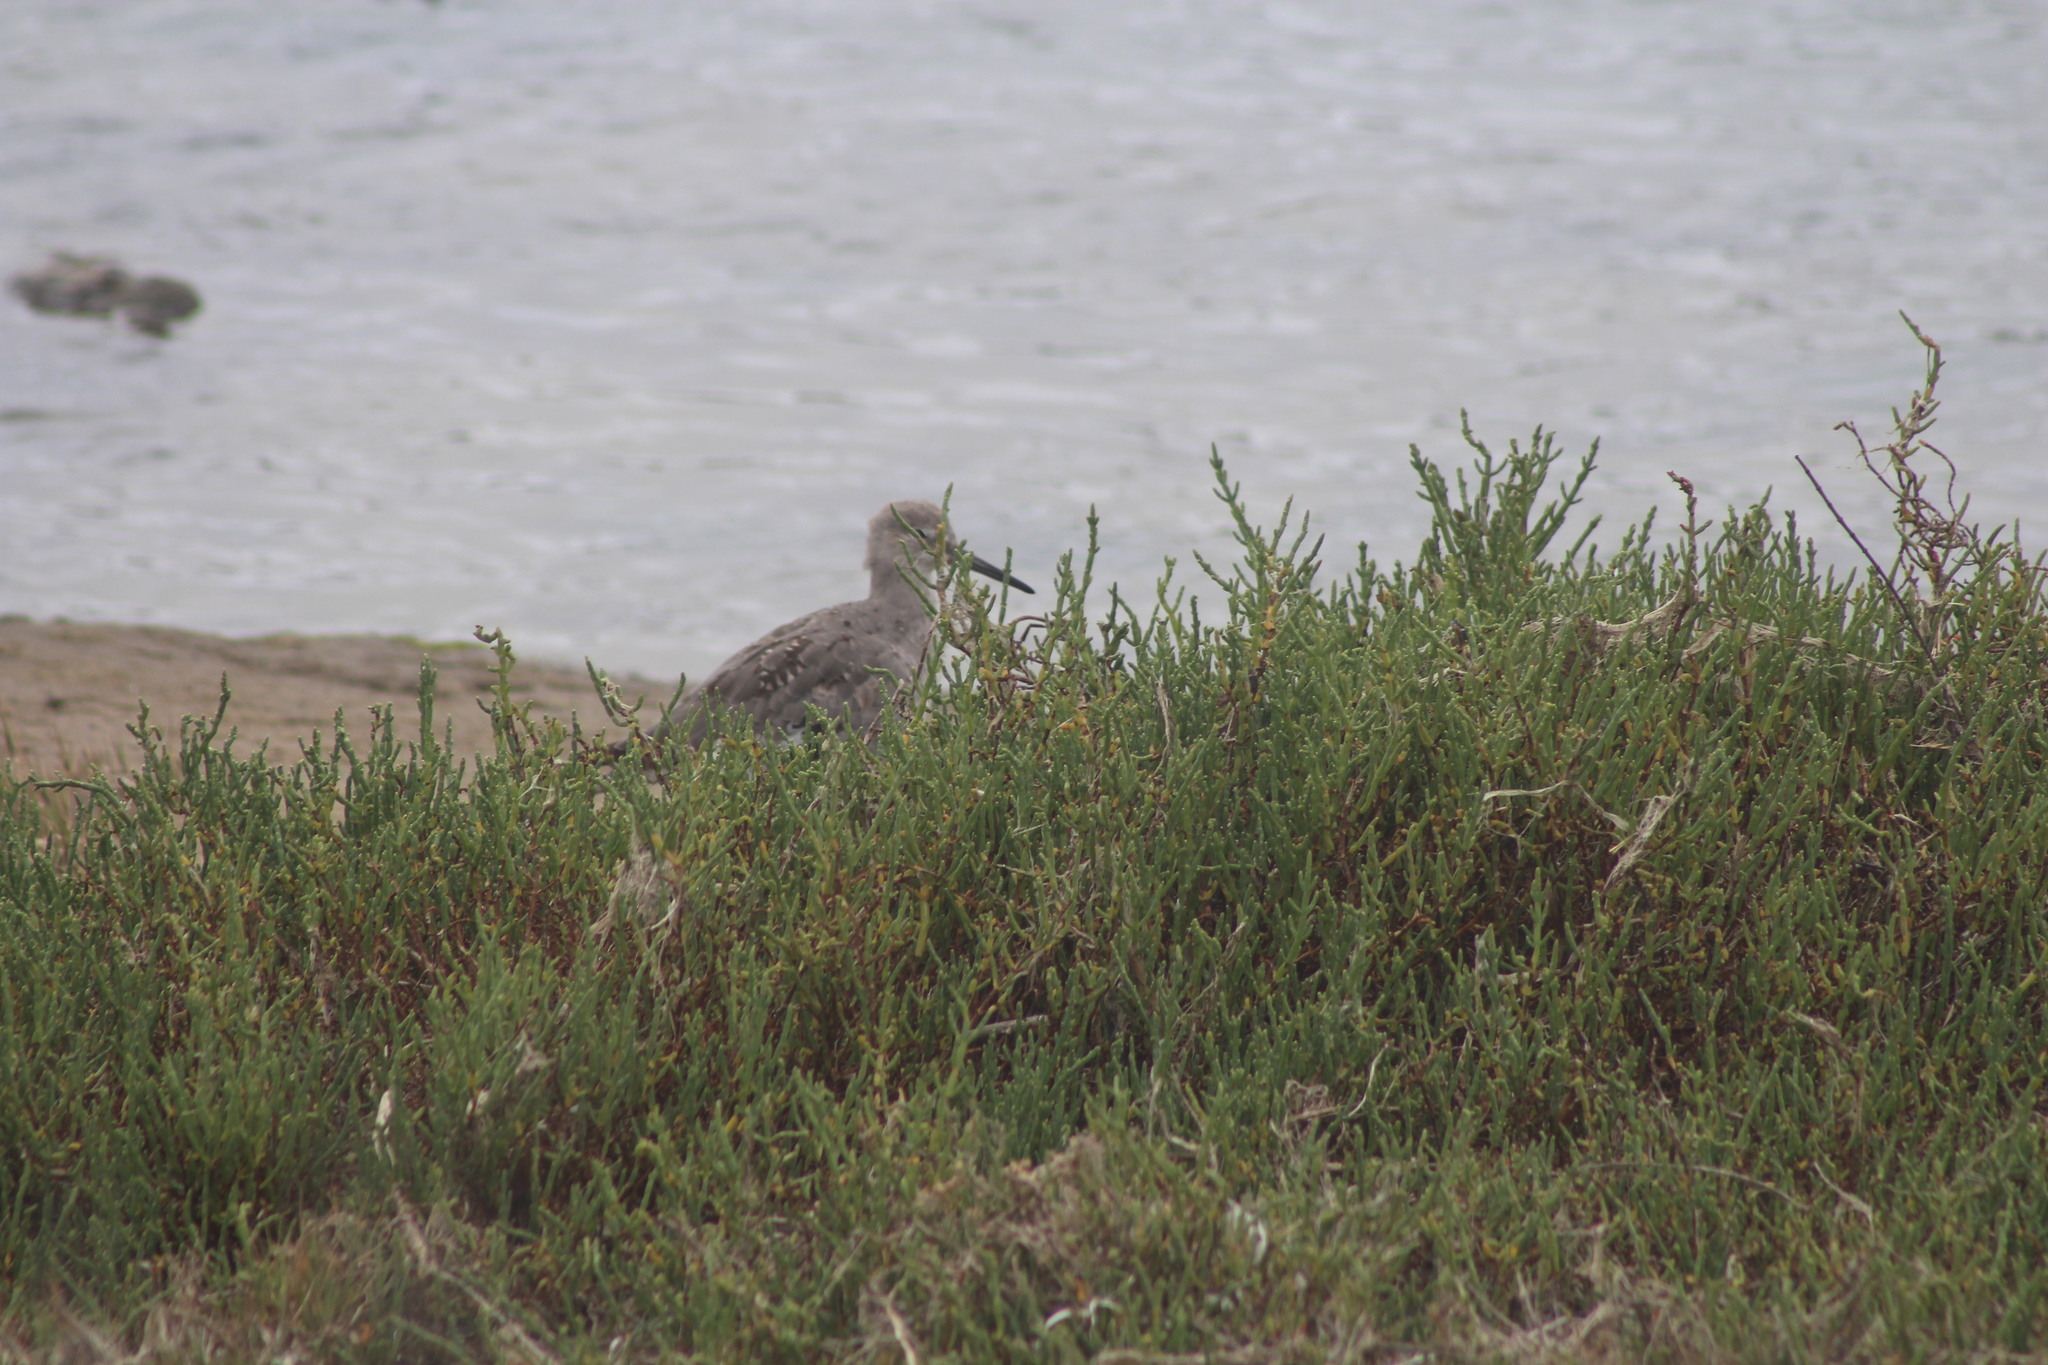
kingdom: Animalia
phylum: Chordata
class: Aves
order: Charadriiformes
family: Scolopacidae
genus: Tringa
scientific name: Tringa semipalmata
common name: Willet
